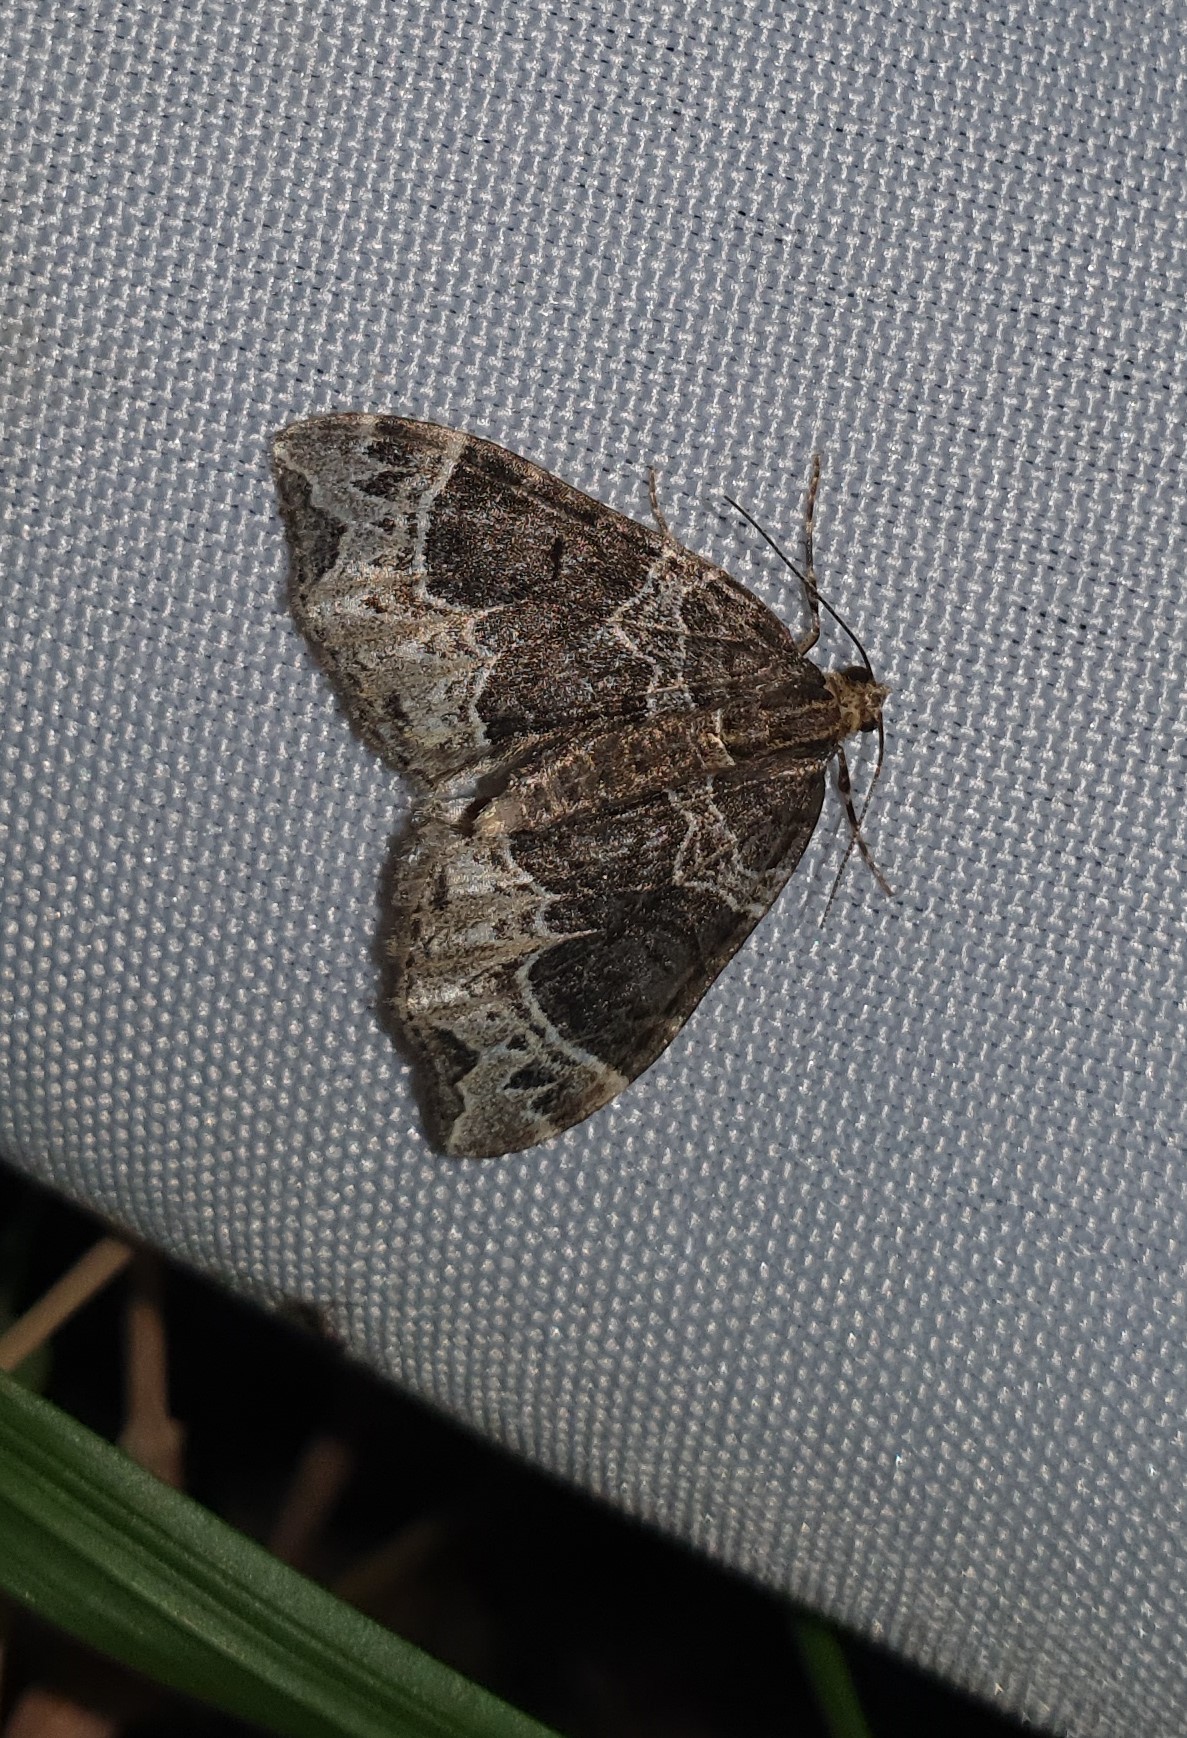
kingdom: Animalia
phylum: Arthropoda
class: Insecta
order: Lepidoptera
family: Geometridae
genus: Ecliptopera
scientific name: Ecliptopera silaceata
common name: Small phoenix
